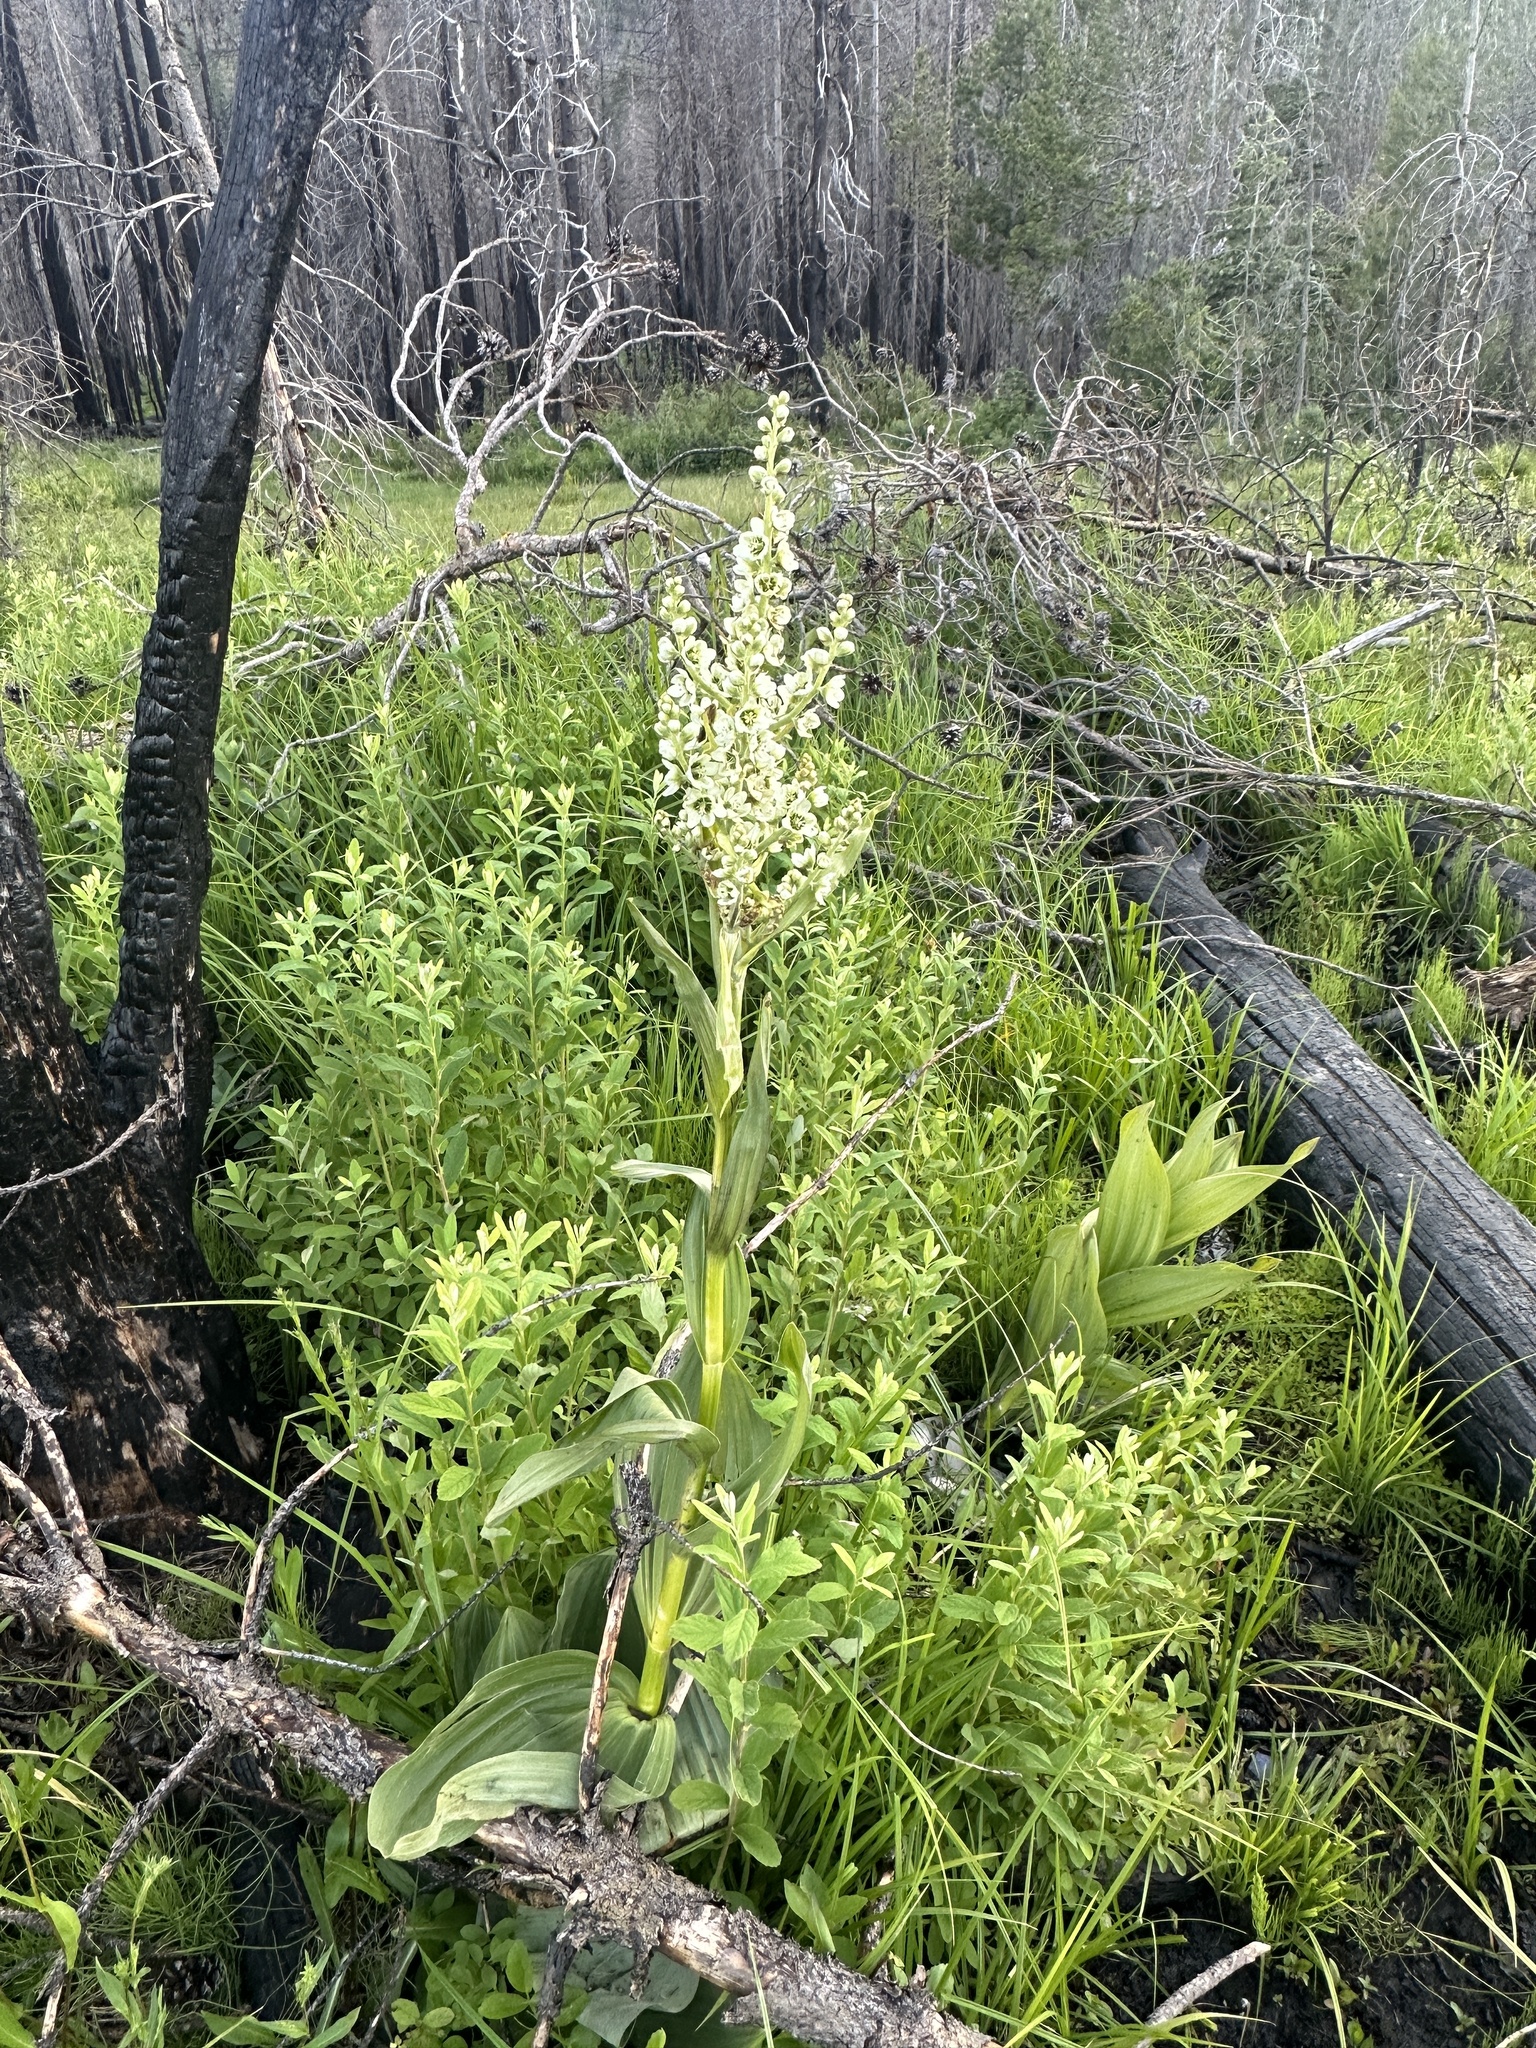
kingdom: Plantae
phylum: Tracheophyta
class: Liliopsida
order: Liliales
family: Melanthiaceae
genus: Veratrum
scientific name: Veratrum californicum
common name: California veratrum
